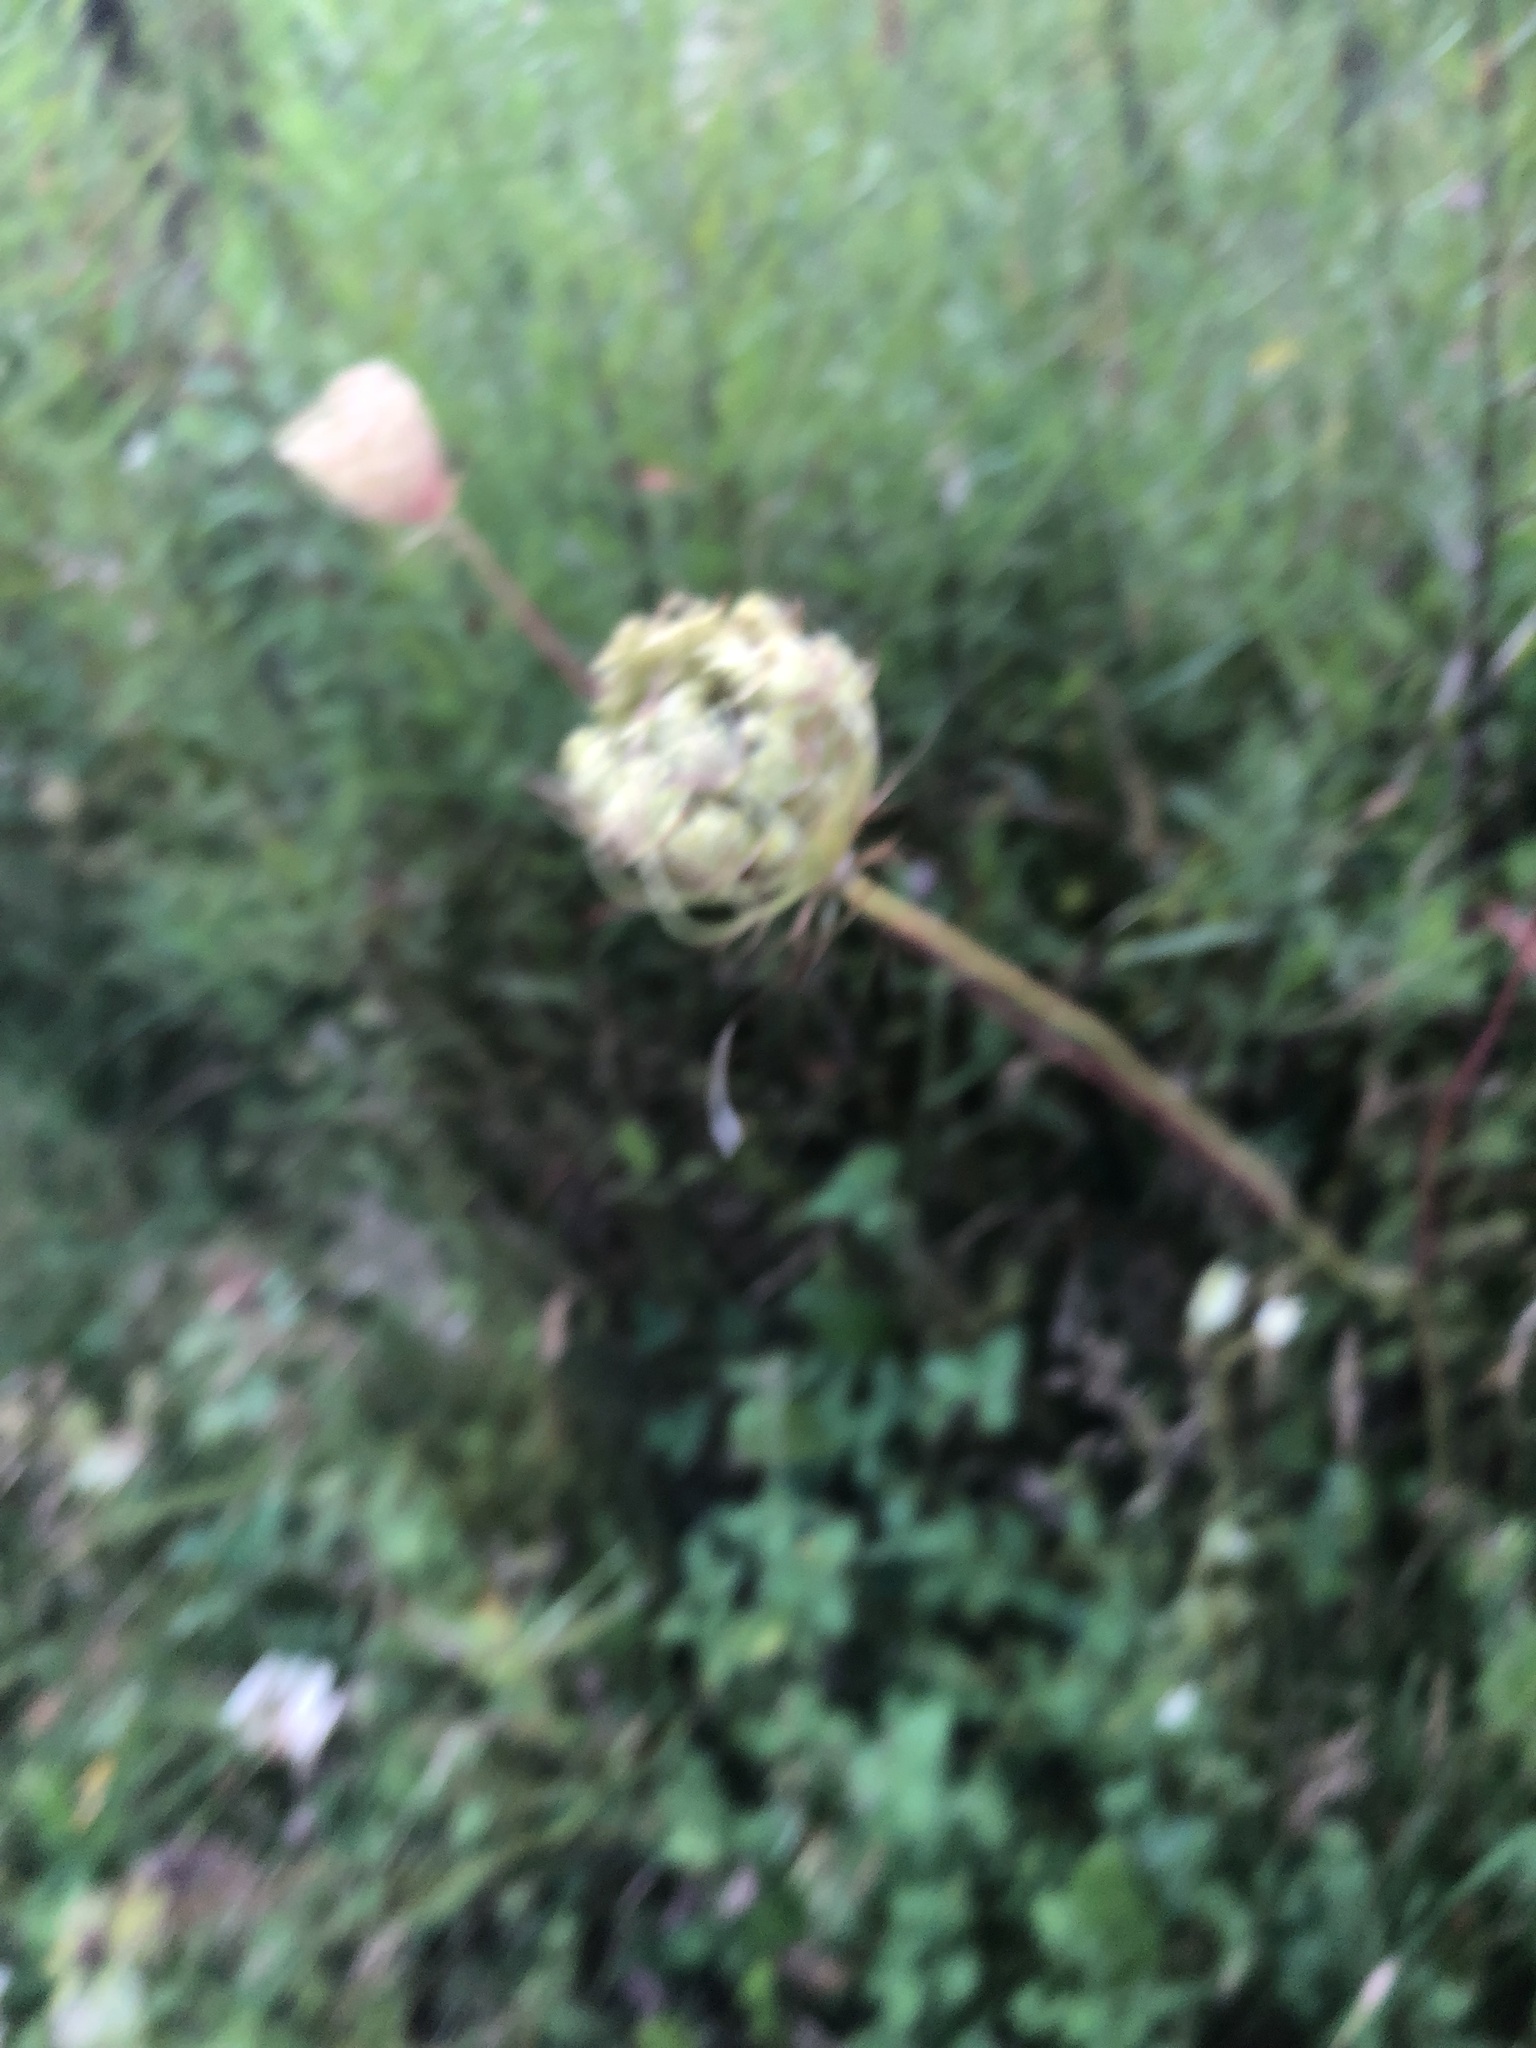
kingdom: Plantae
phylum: Tracheophyta
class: Magnoliopsida
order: Apiales
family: Apiaceae
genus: Daucus
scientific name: Daucus carota
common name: Wild carrot
